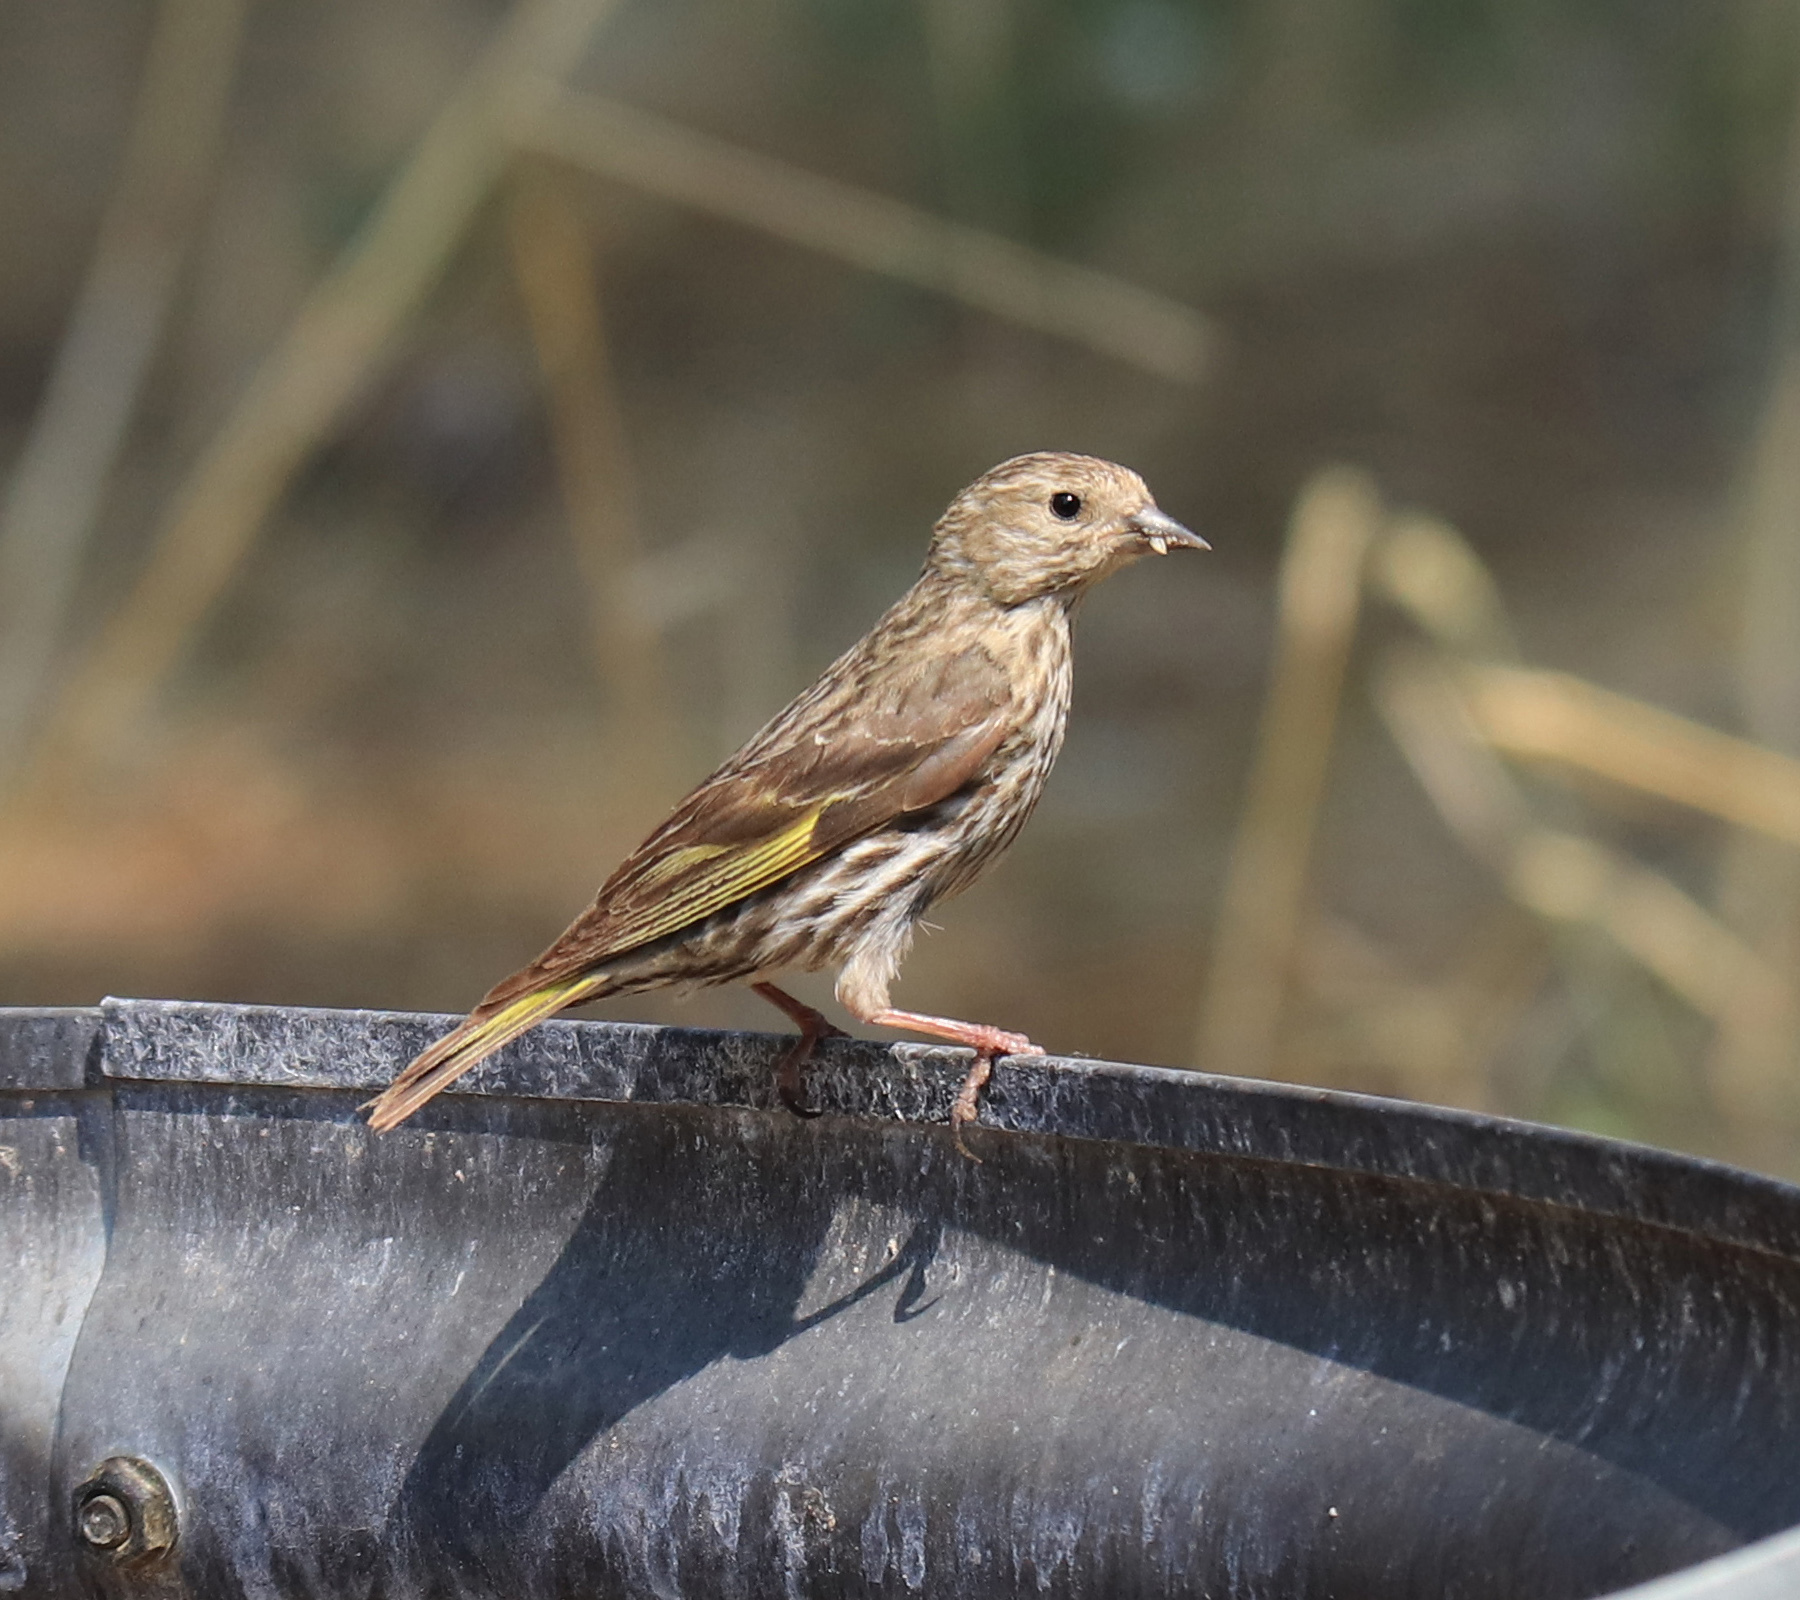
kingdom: Animalia
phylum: Chordata
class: Aves
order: Passeriformes
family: Fringillidae
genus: Spinus
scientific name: Spinus pinus
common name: Pine siskin
